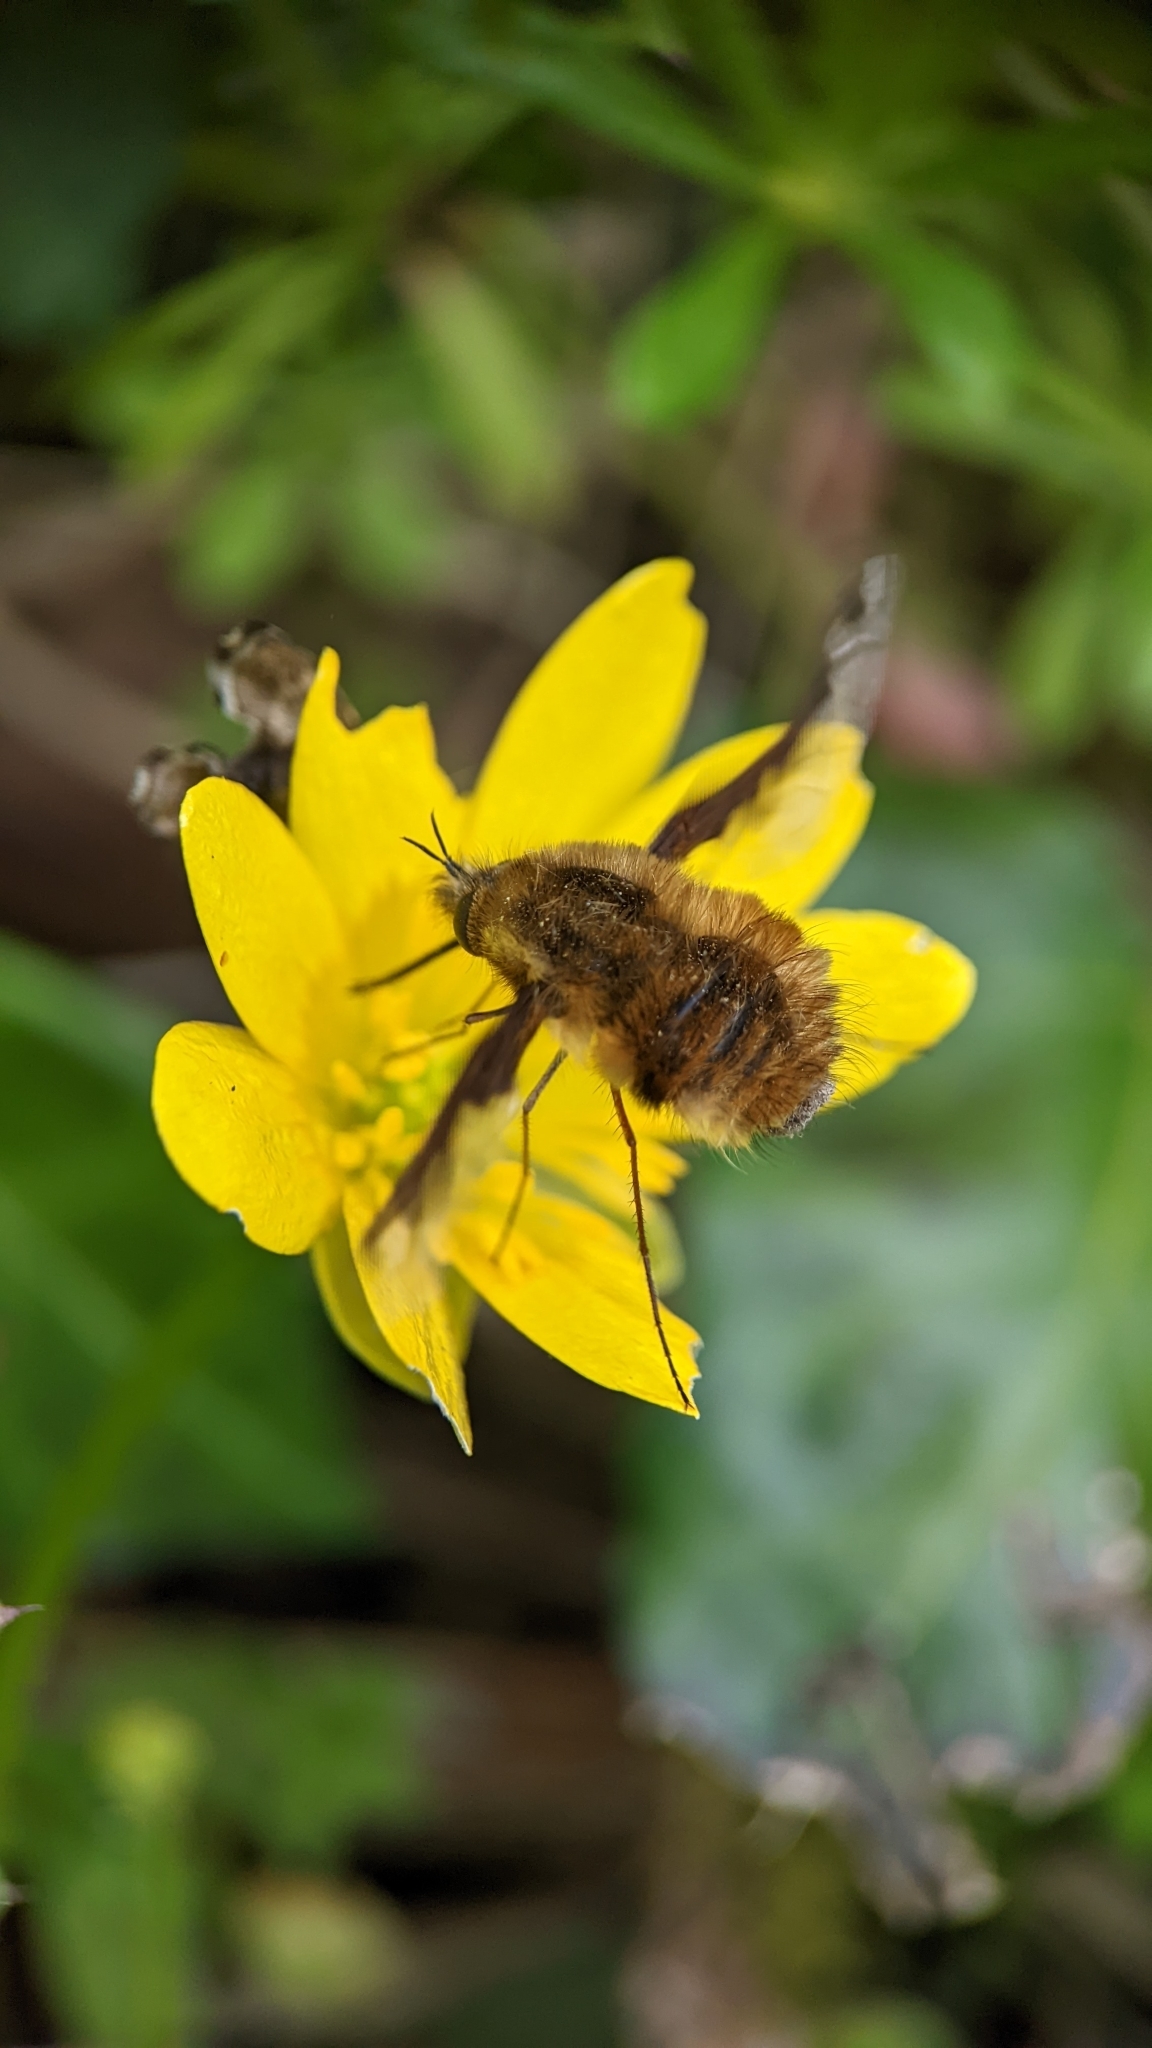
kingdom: Animalia
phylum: Arthropoda
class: Insecta
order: Diptera
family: Bombyliidae
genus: Bombylius
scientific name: Bombylius major
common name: Bee fly
